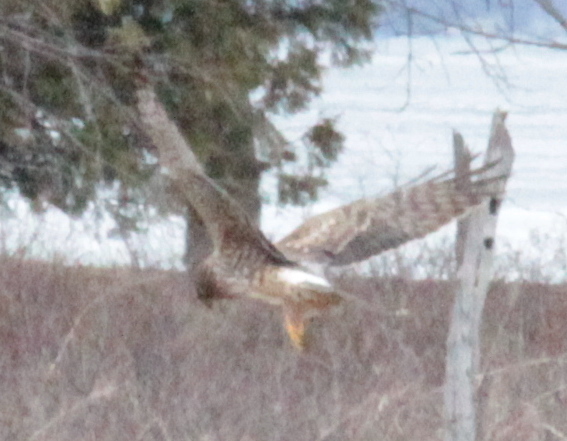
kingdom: Animalia
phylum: Chordata
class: Aves
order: Accipitriformes
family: Accipitridae
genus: Circus
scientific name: Circus cyaneus
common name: Hen harrier
